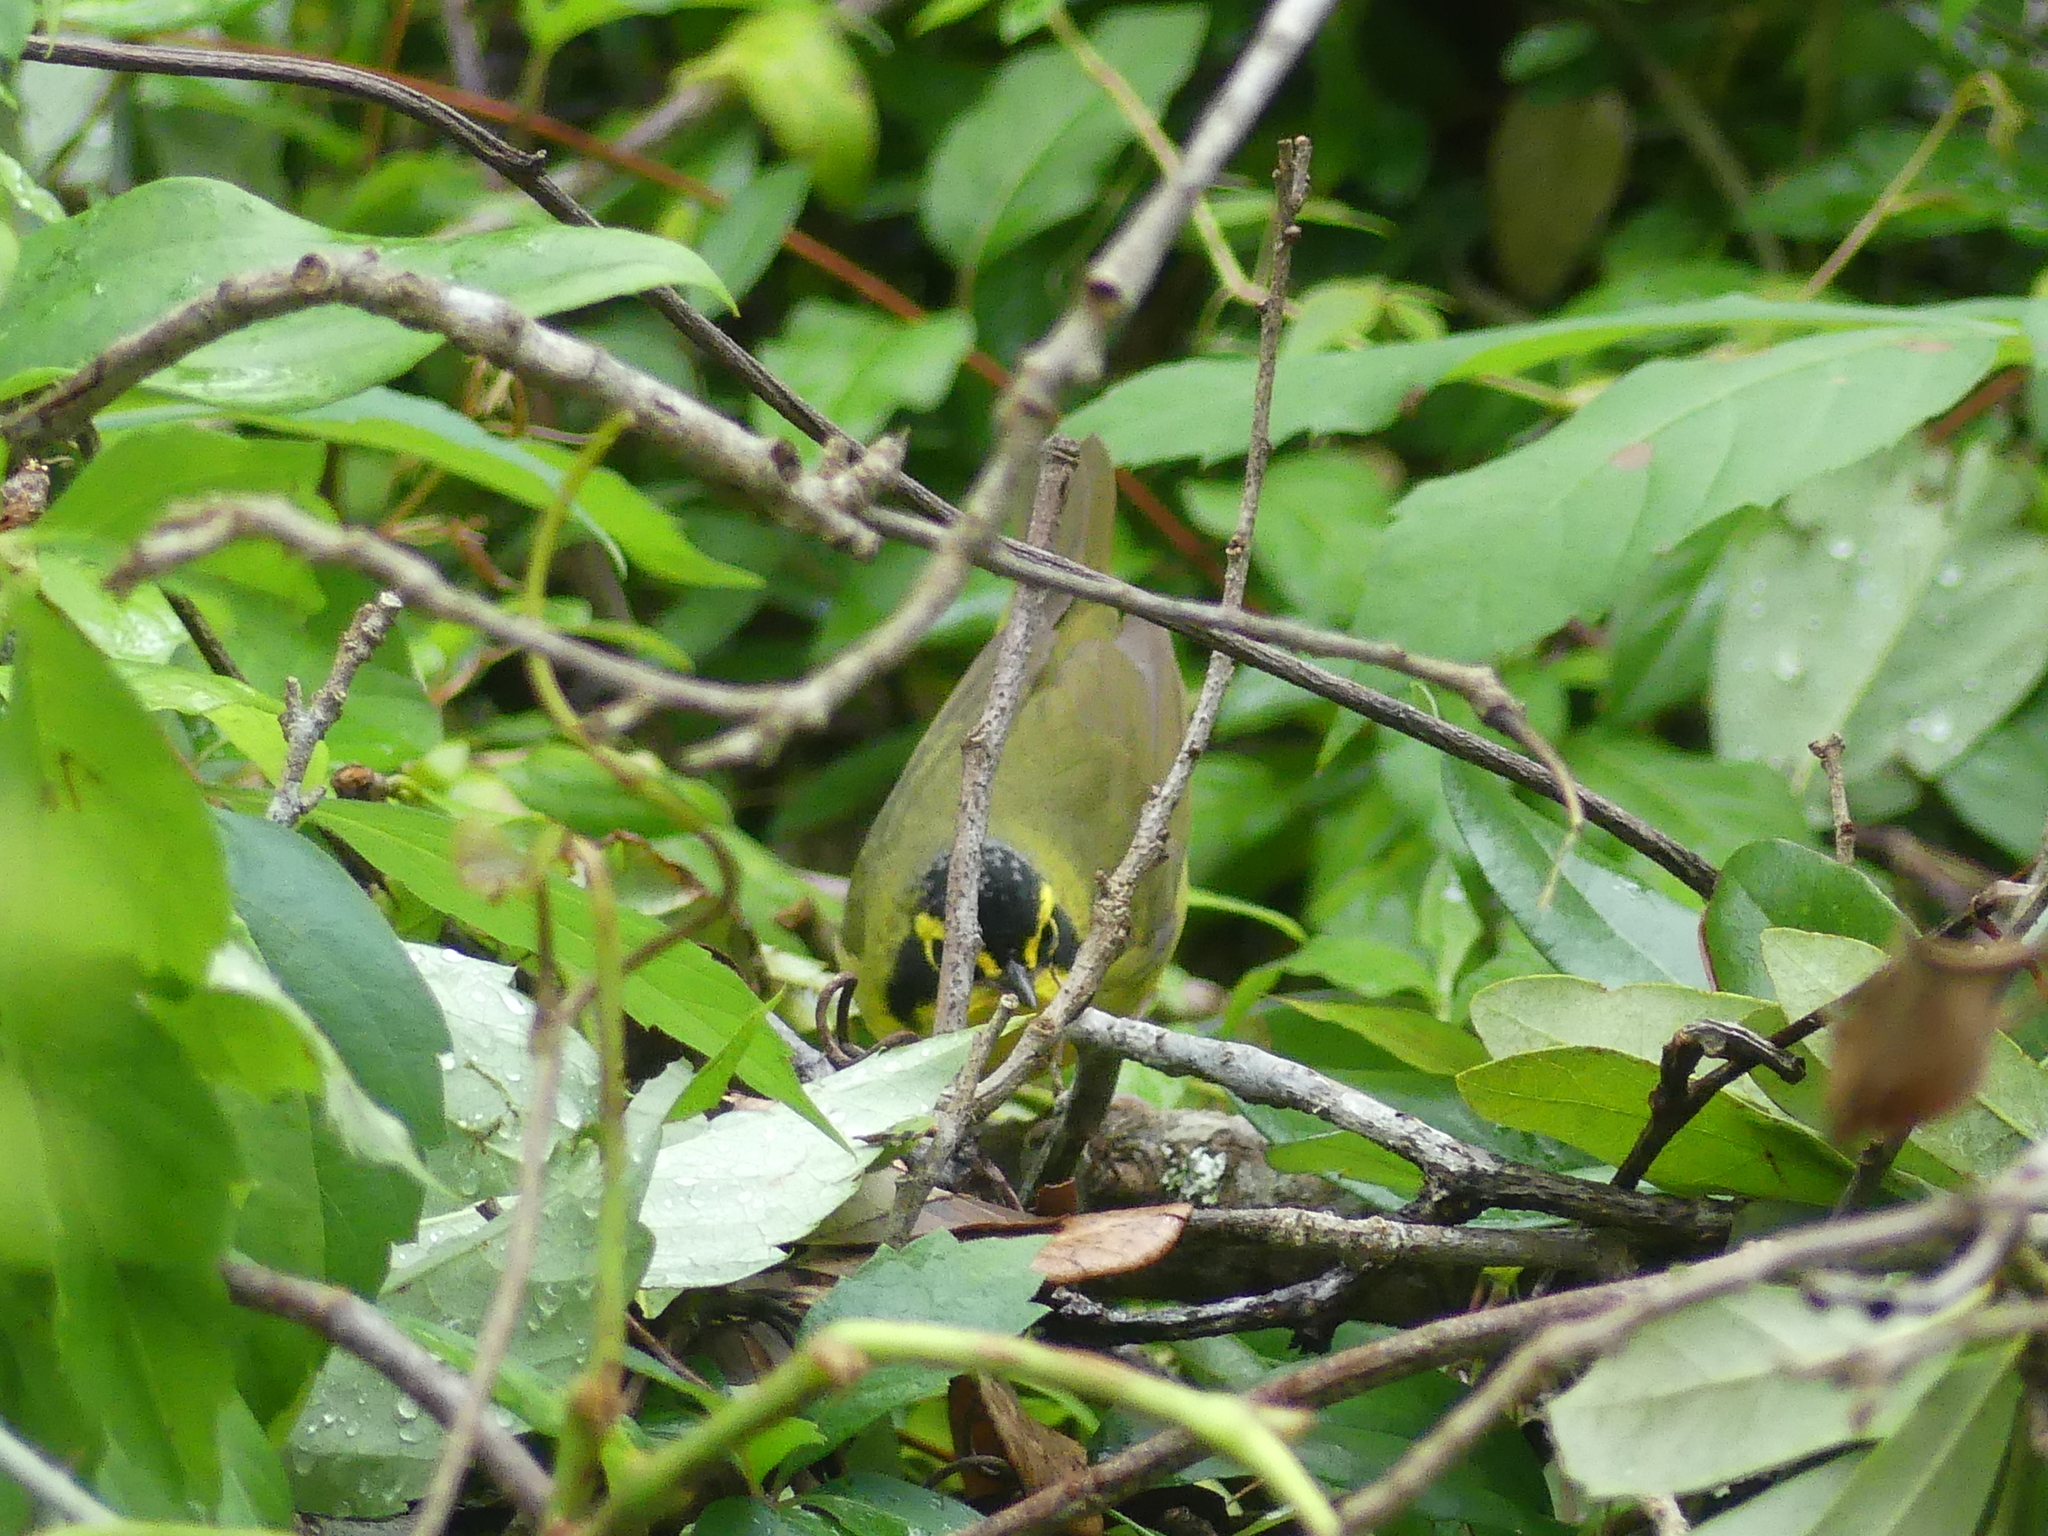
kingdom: Animalia
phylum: Chordata
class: Aves
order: Passeriformes
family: Parulidae
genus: Geothlypis
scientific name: Geothlypis formosa
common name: Kentucky warbler
